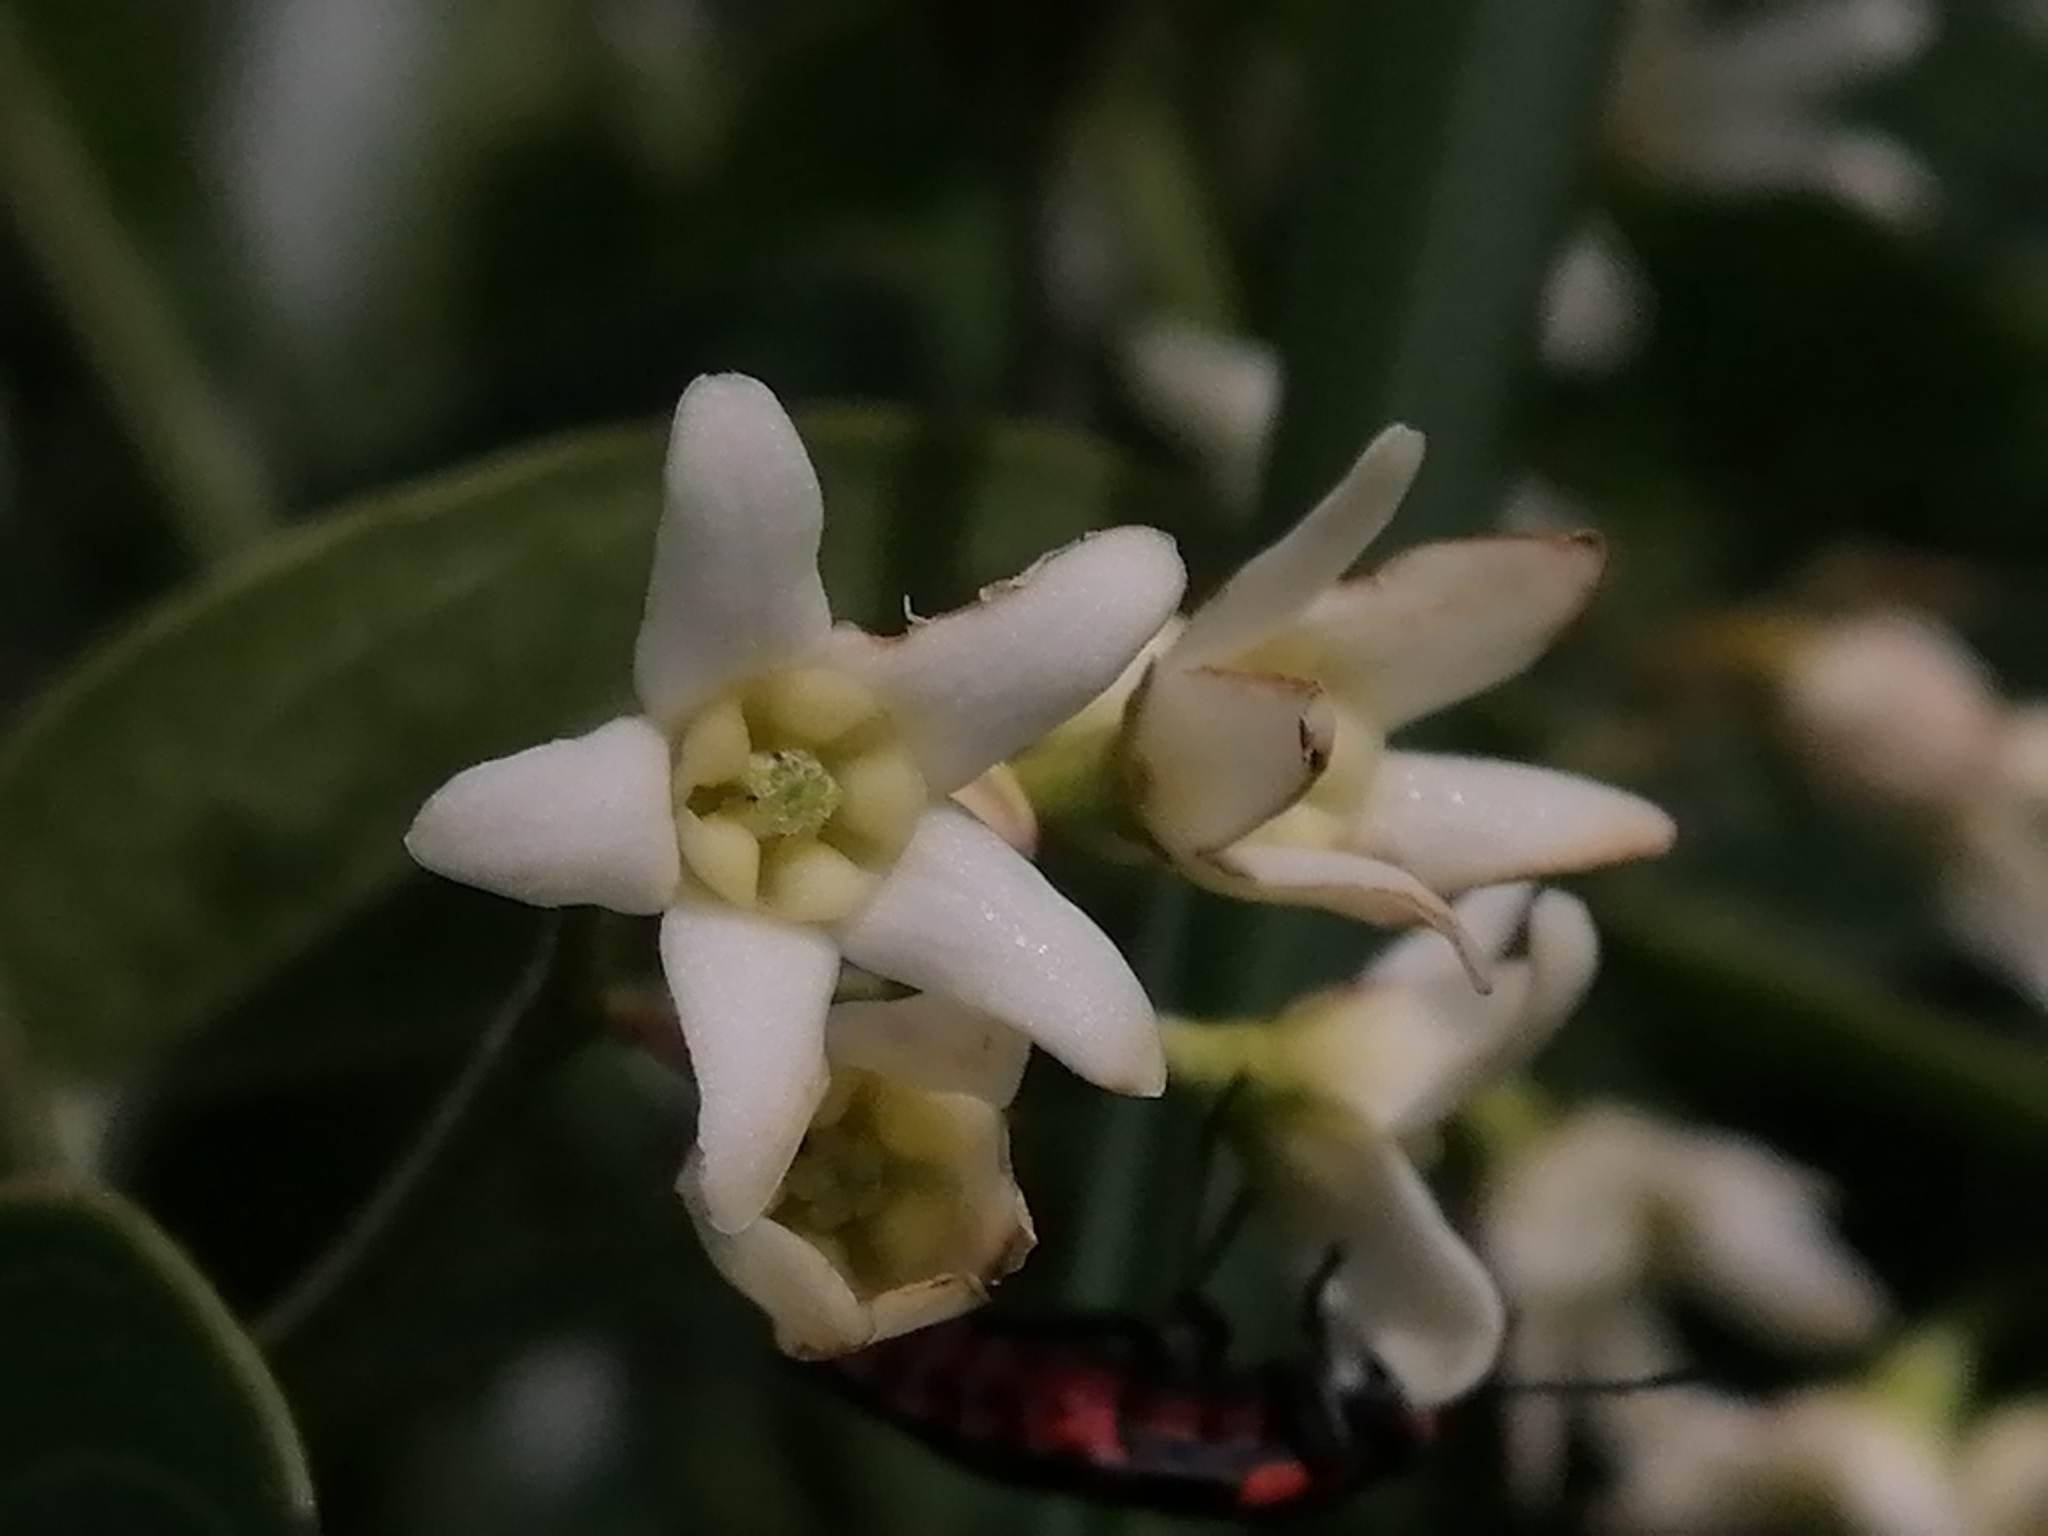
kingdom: Plantae
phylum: Tracheophyta
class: Magnoliopsida
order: Gentianales
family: Apocynaceae
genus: Vincetoxicum
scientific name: Vincetoxicum hirundinaria
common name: White swallowwort
